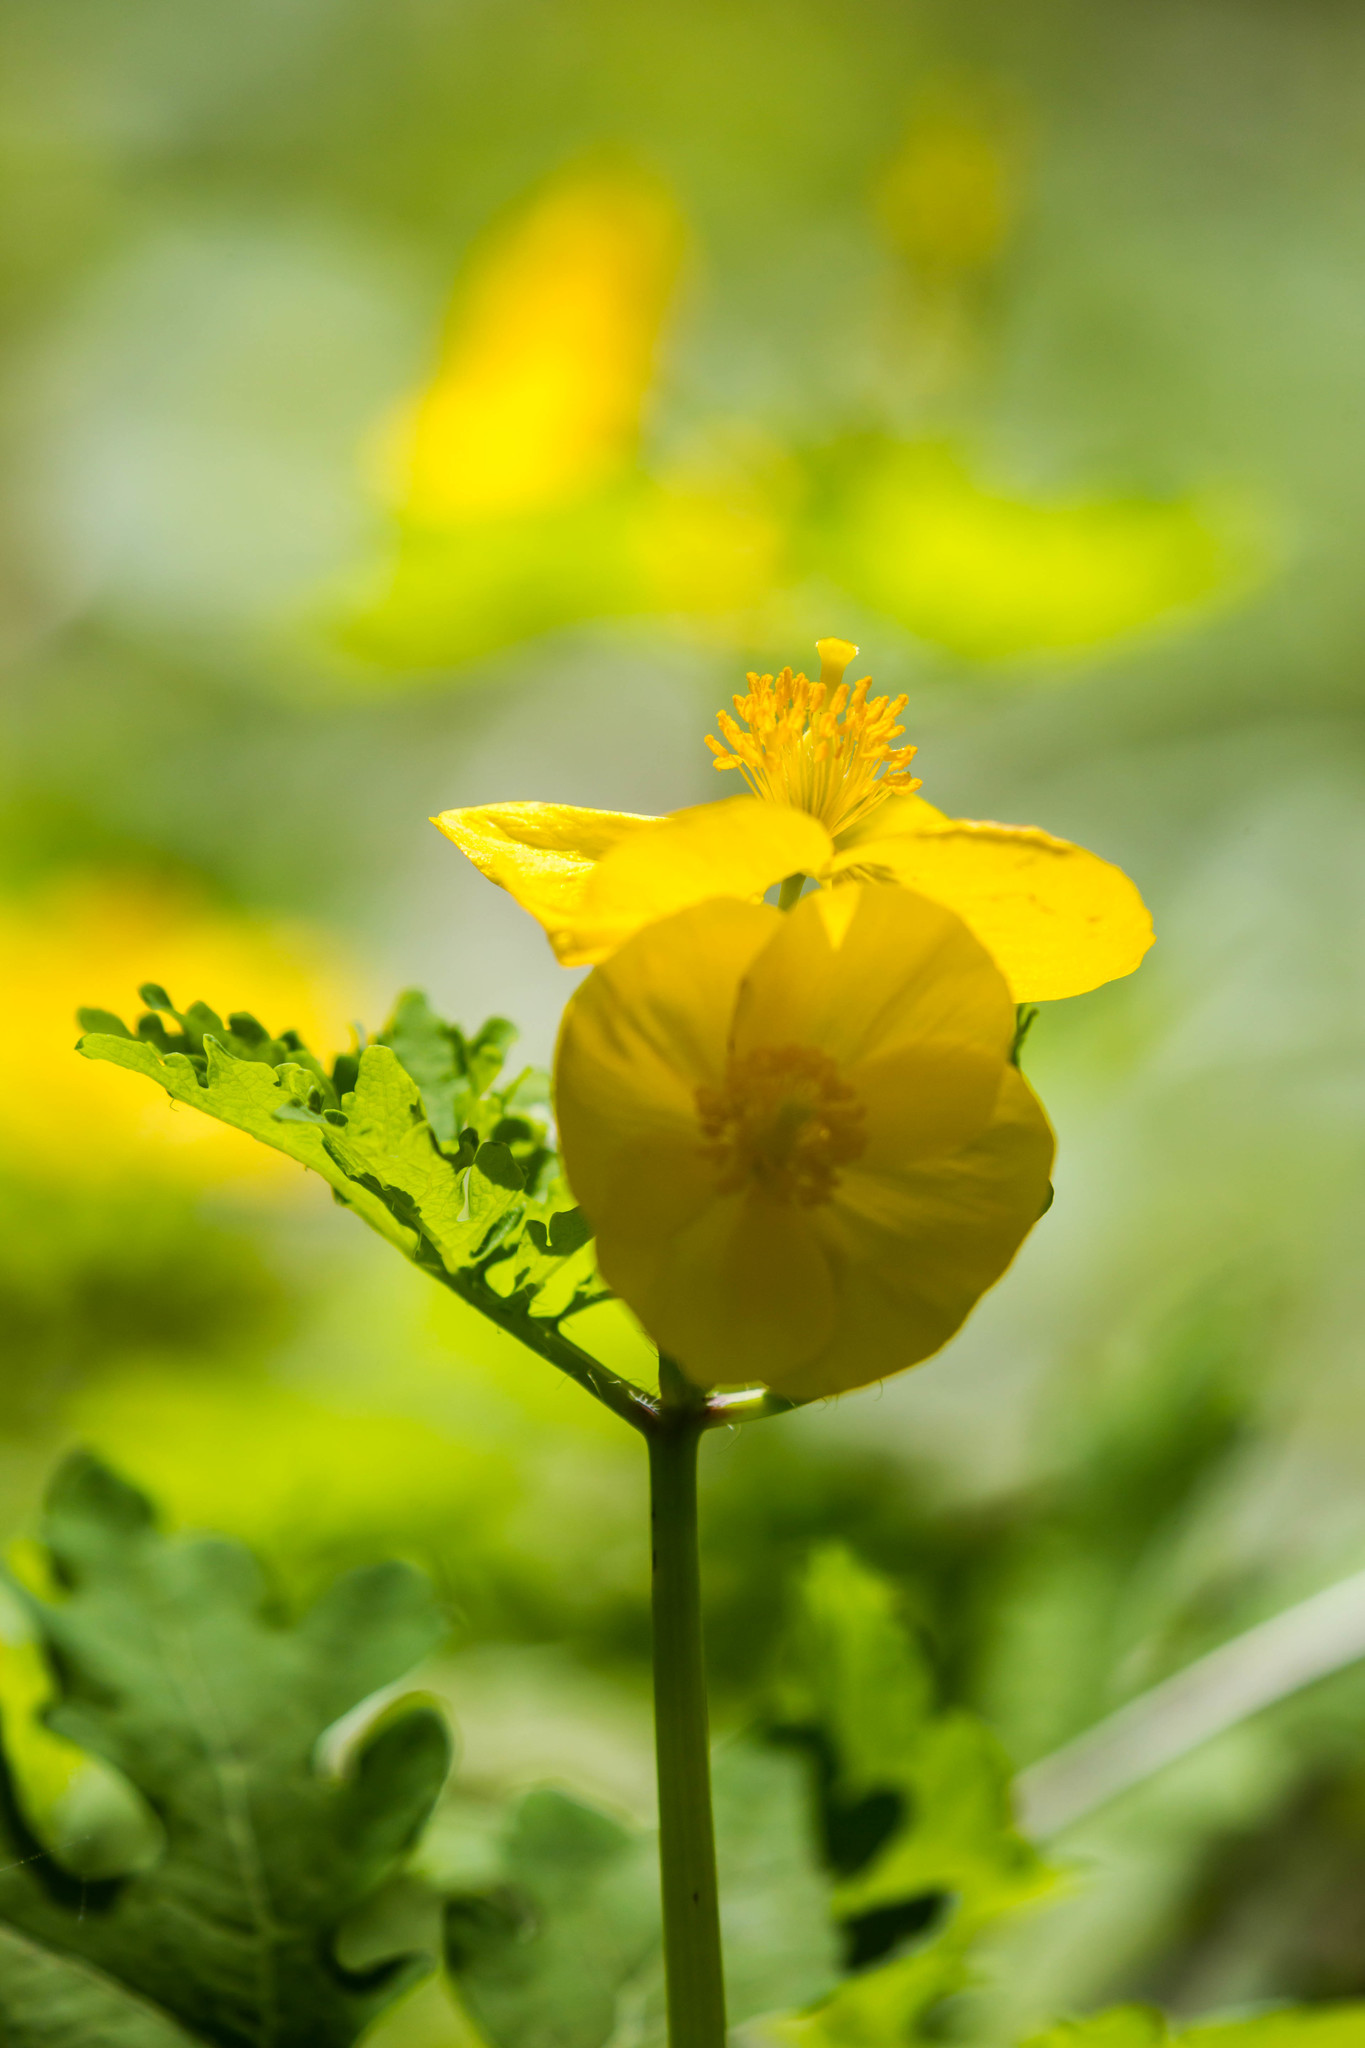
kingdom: Plantae
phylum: Tracheophyta
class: Magnoliopsida
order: Ranunculales
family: Papaveraceae
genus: Stylophorum
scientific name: Stylophorum diphyllum
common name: Celandine poppy
